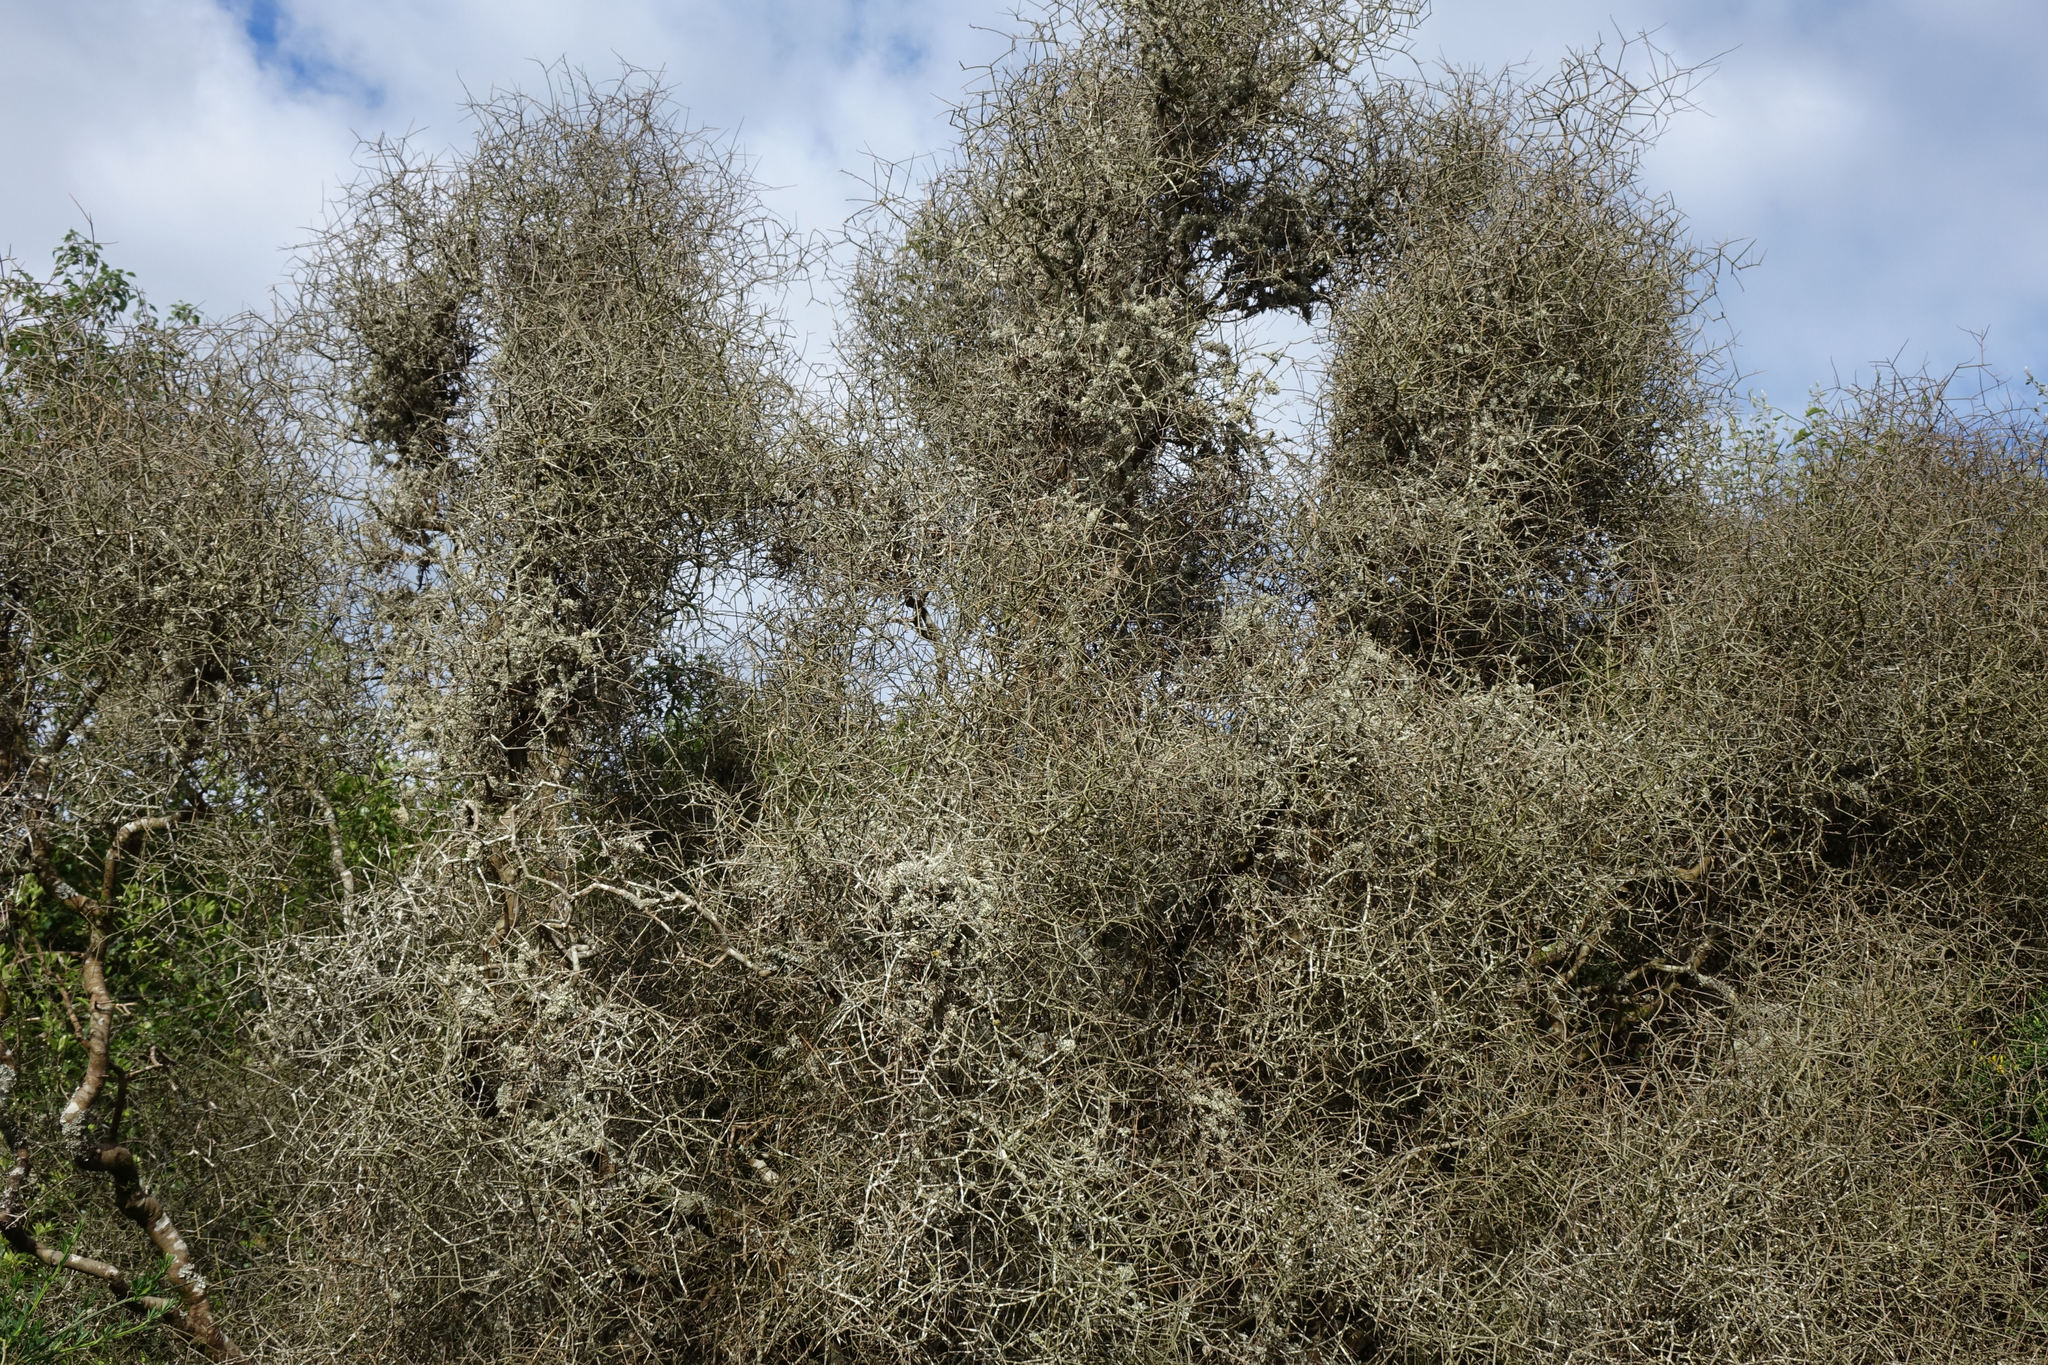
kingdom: Plantae
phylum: Tracheophyta
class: Magnoliopsida
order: Malpighiales
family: Violaceae
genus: Melicytus
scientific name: Melicytus flexuosus
